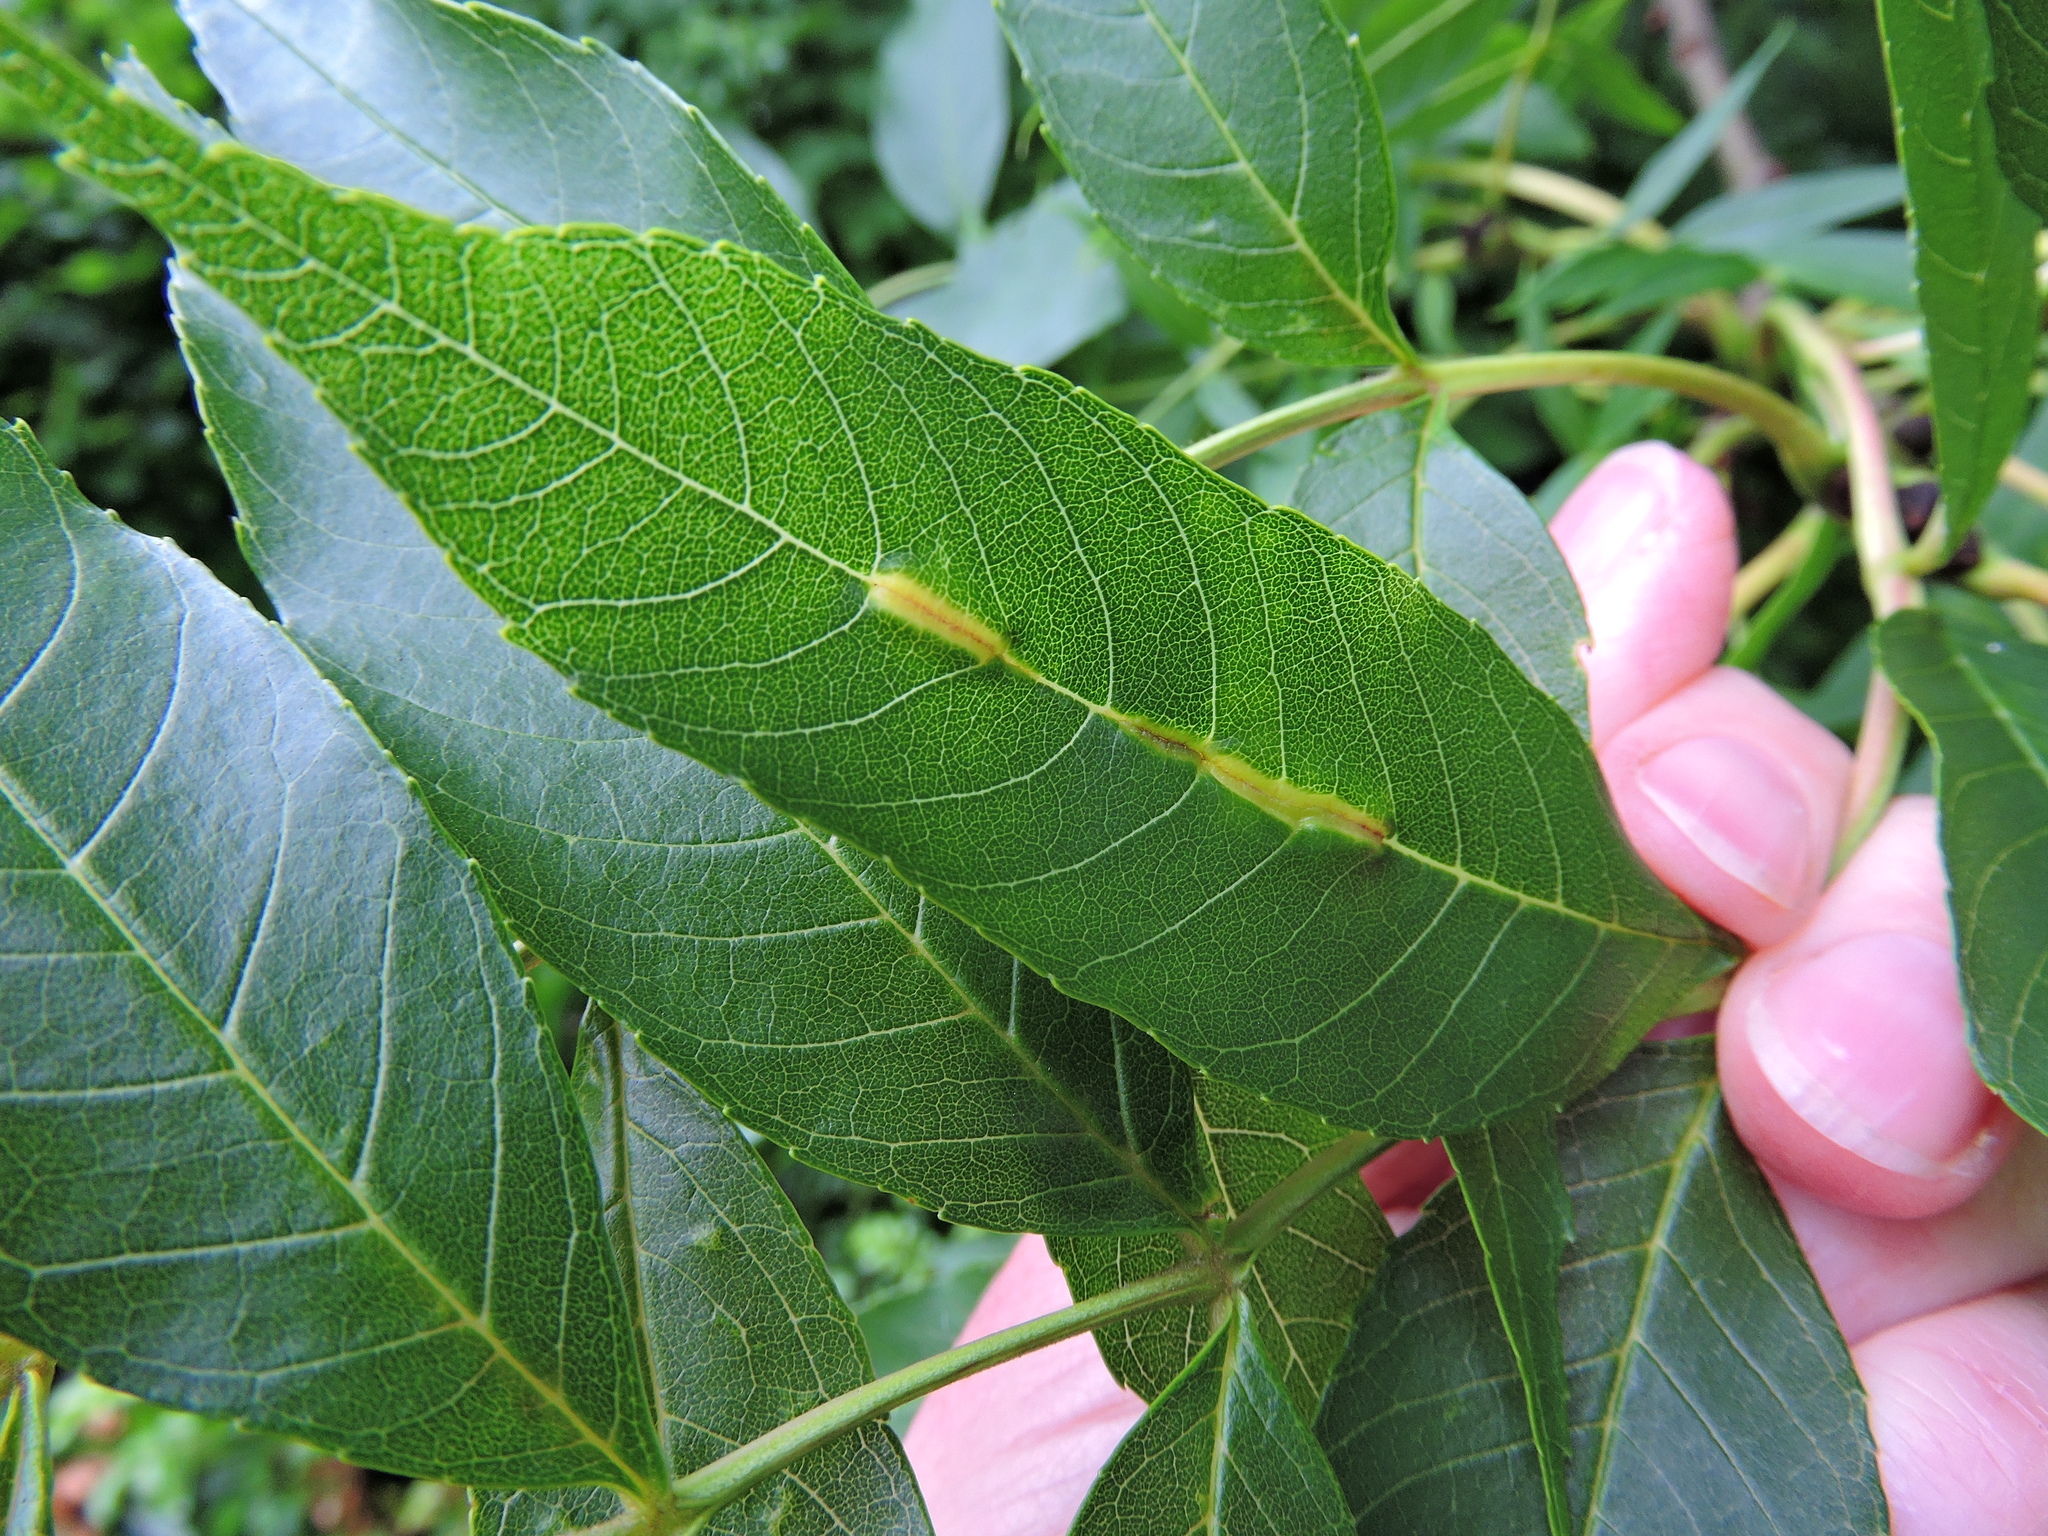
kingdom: Animalia
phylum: Arthropoda
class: Insecta
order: Diptera
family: Cecidomyiidae
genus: Dasineura
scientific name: Dasineura fraxini
